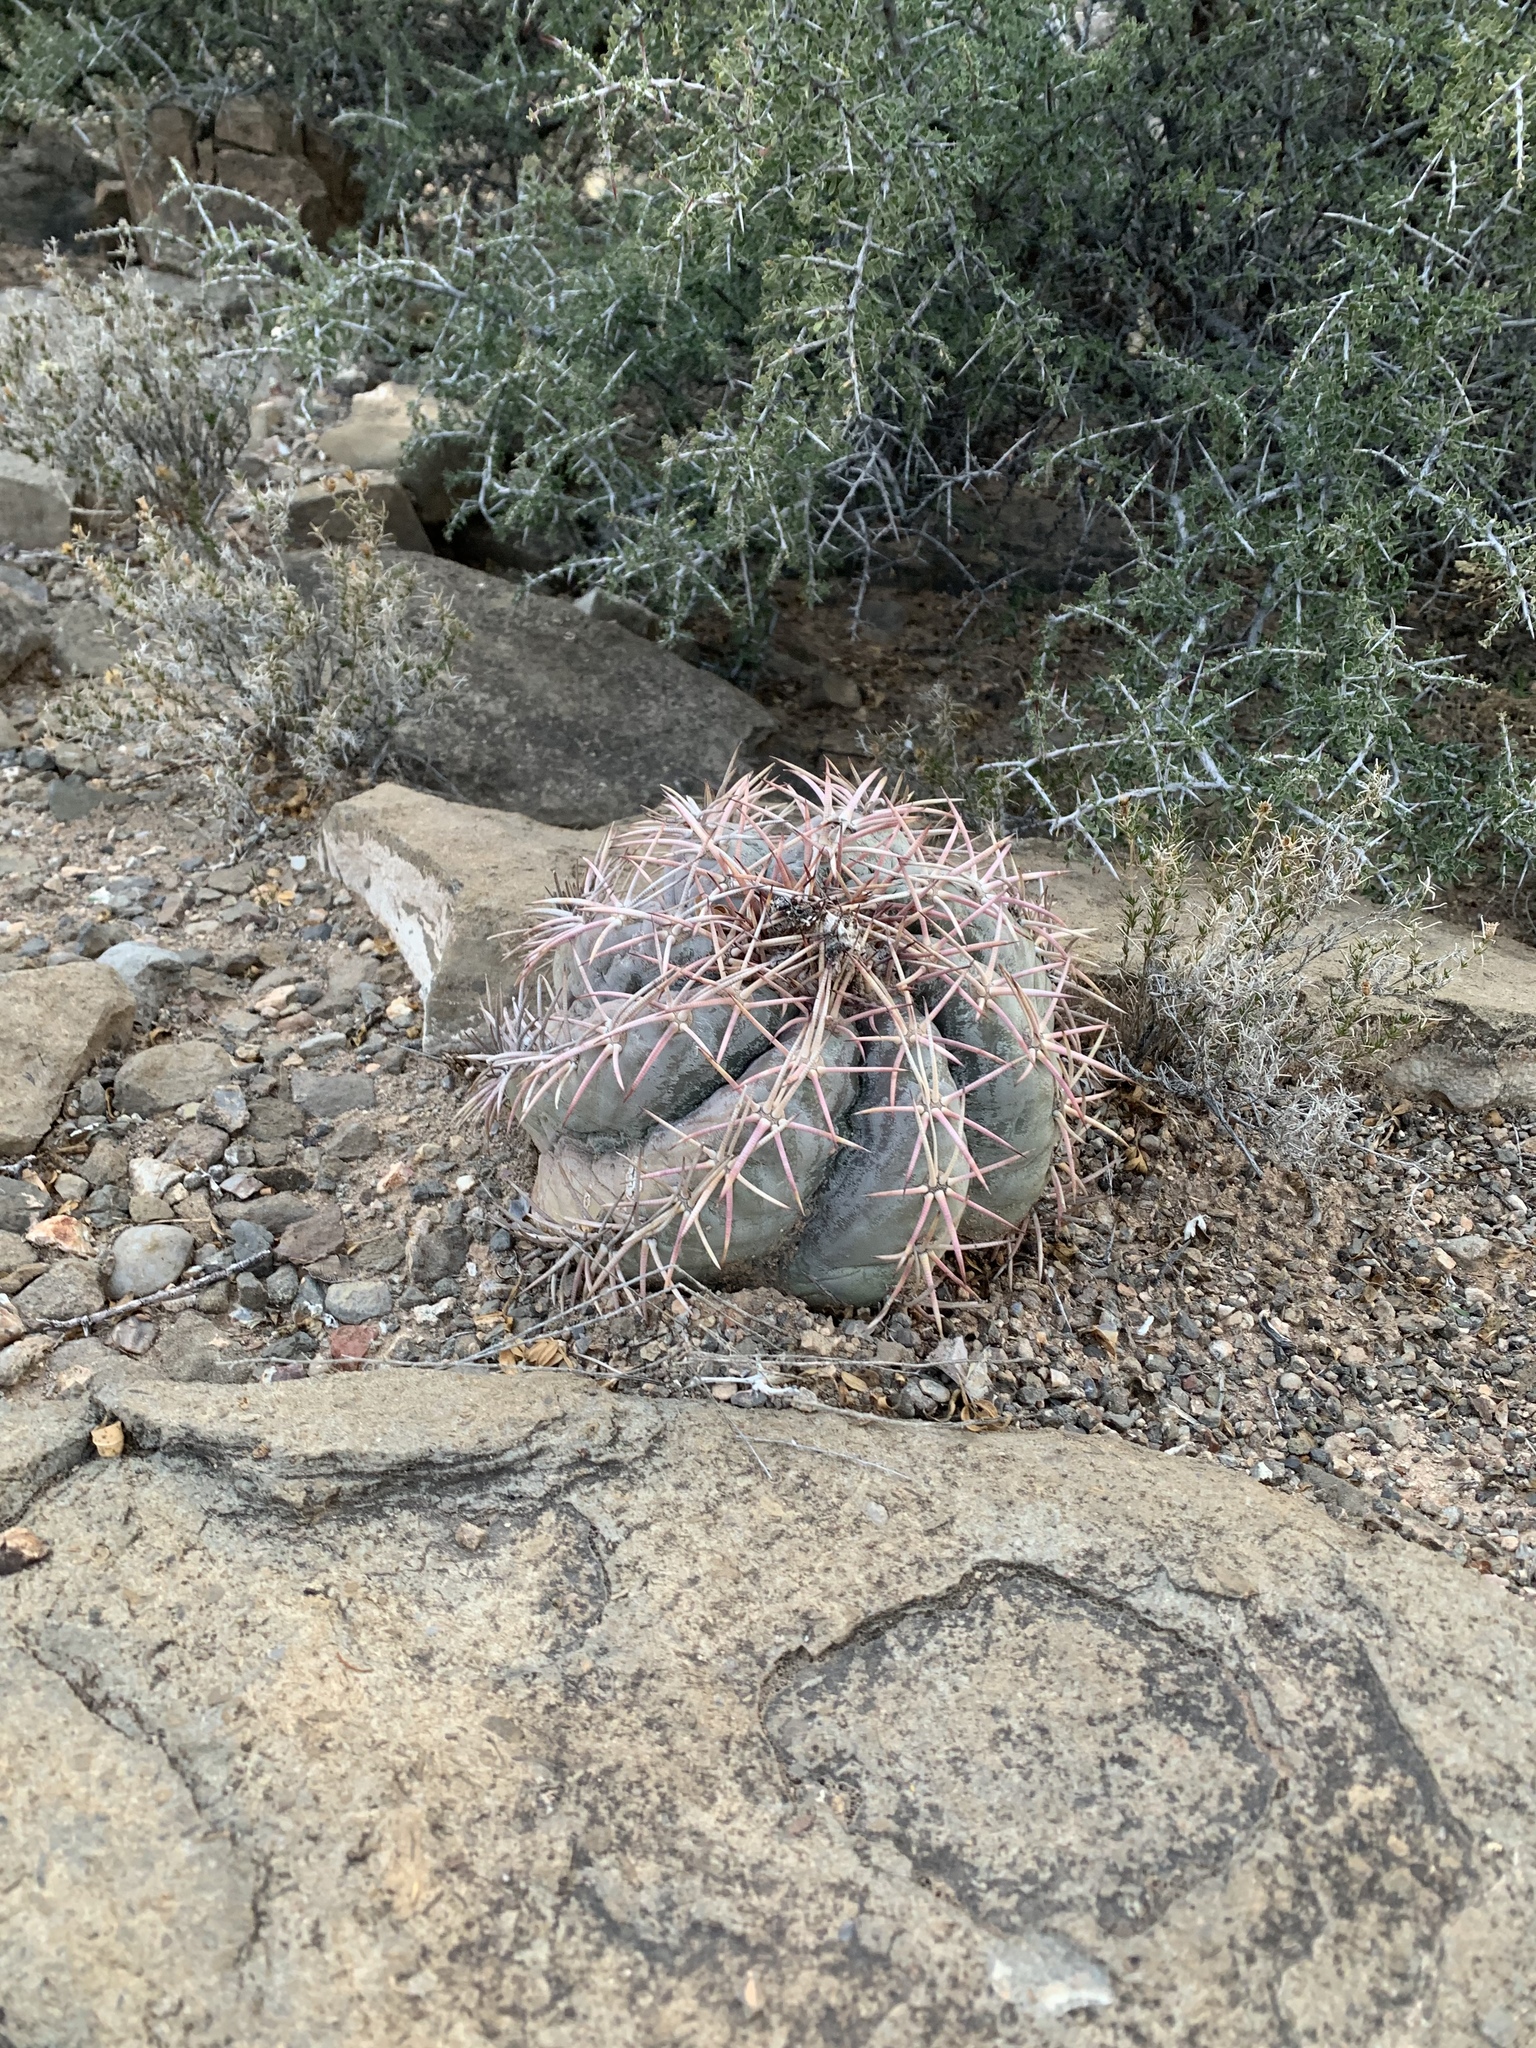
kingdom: Plantae
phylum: Tracheophyta
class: Magnoliopsida
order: Caryophyllales
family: Cactaceae
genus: Echinocactus
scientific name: Echinocactus horizonthalonius
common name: Devilshead
